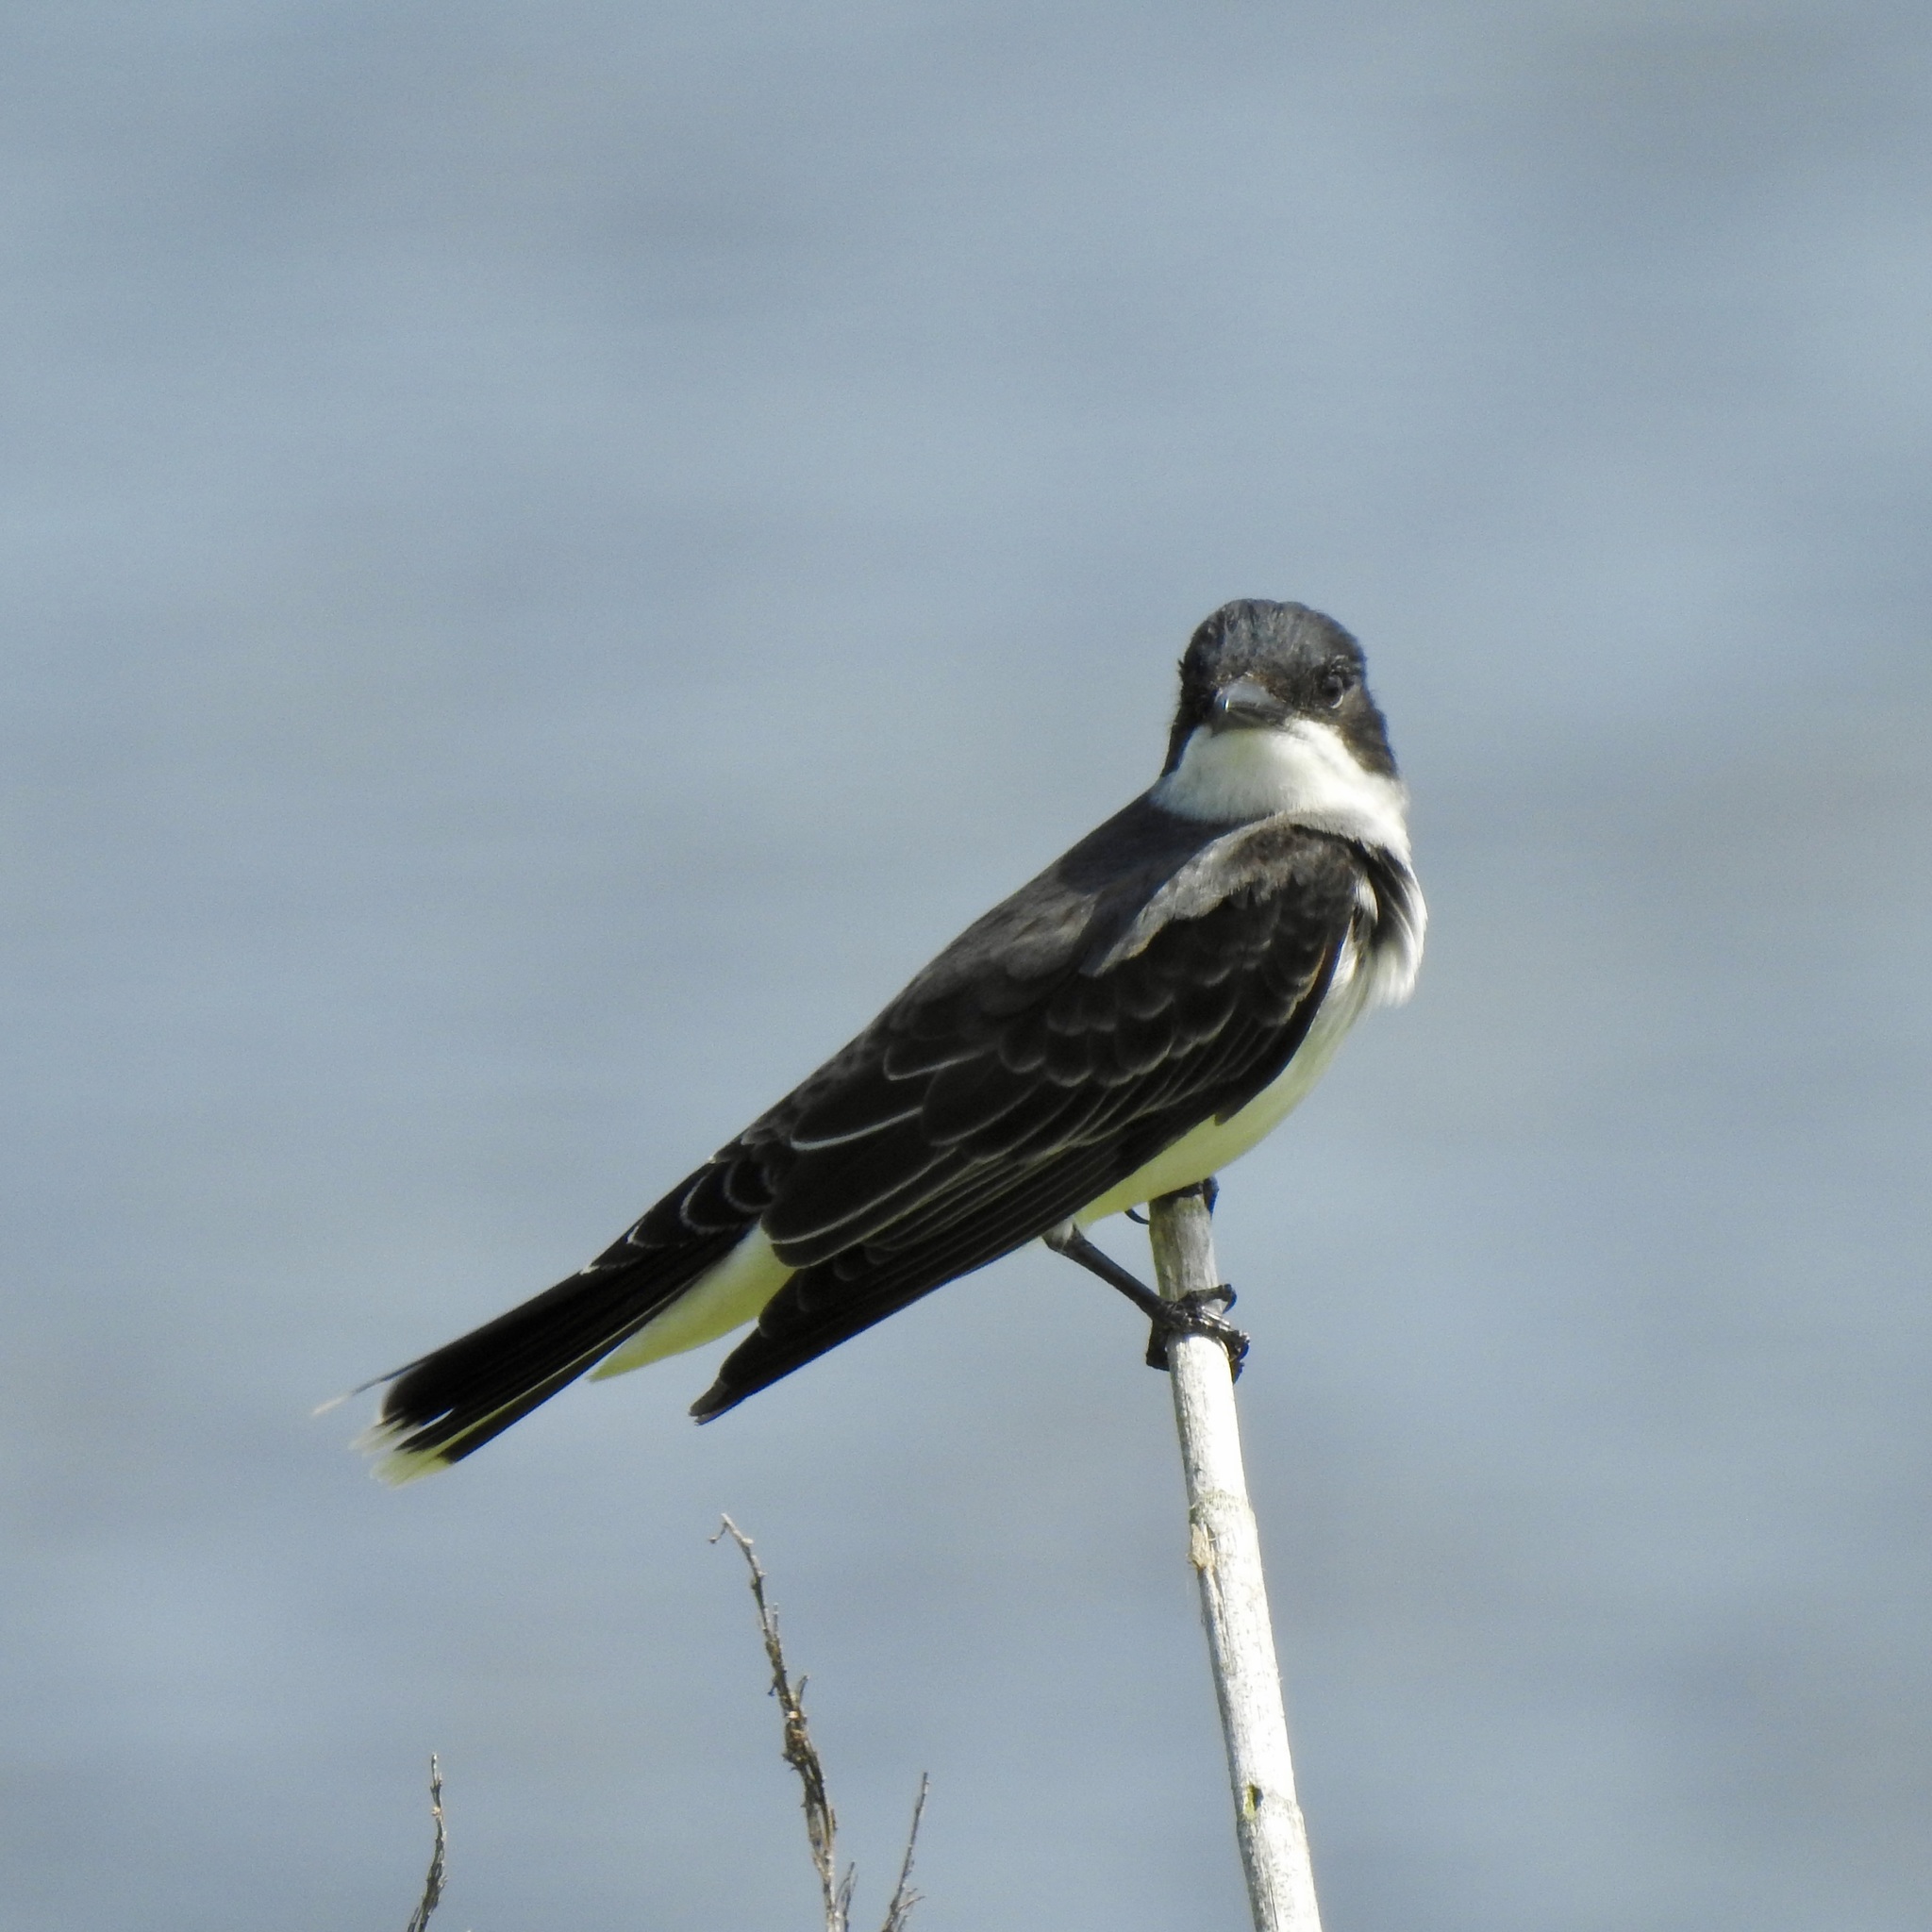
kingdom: Animalia
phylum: Chordata
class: Aves
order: Passeriformes
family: Tyrannidae
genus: Tyrannus
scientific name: Tyrannus tyrannus
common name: Eastern kingbird
